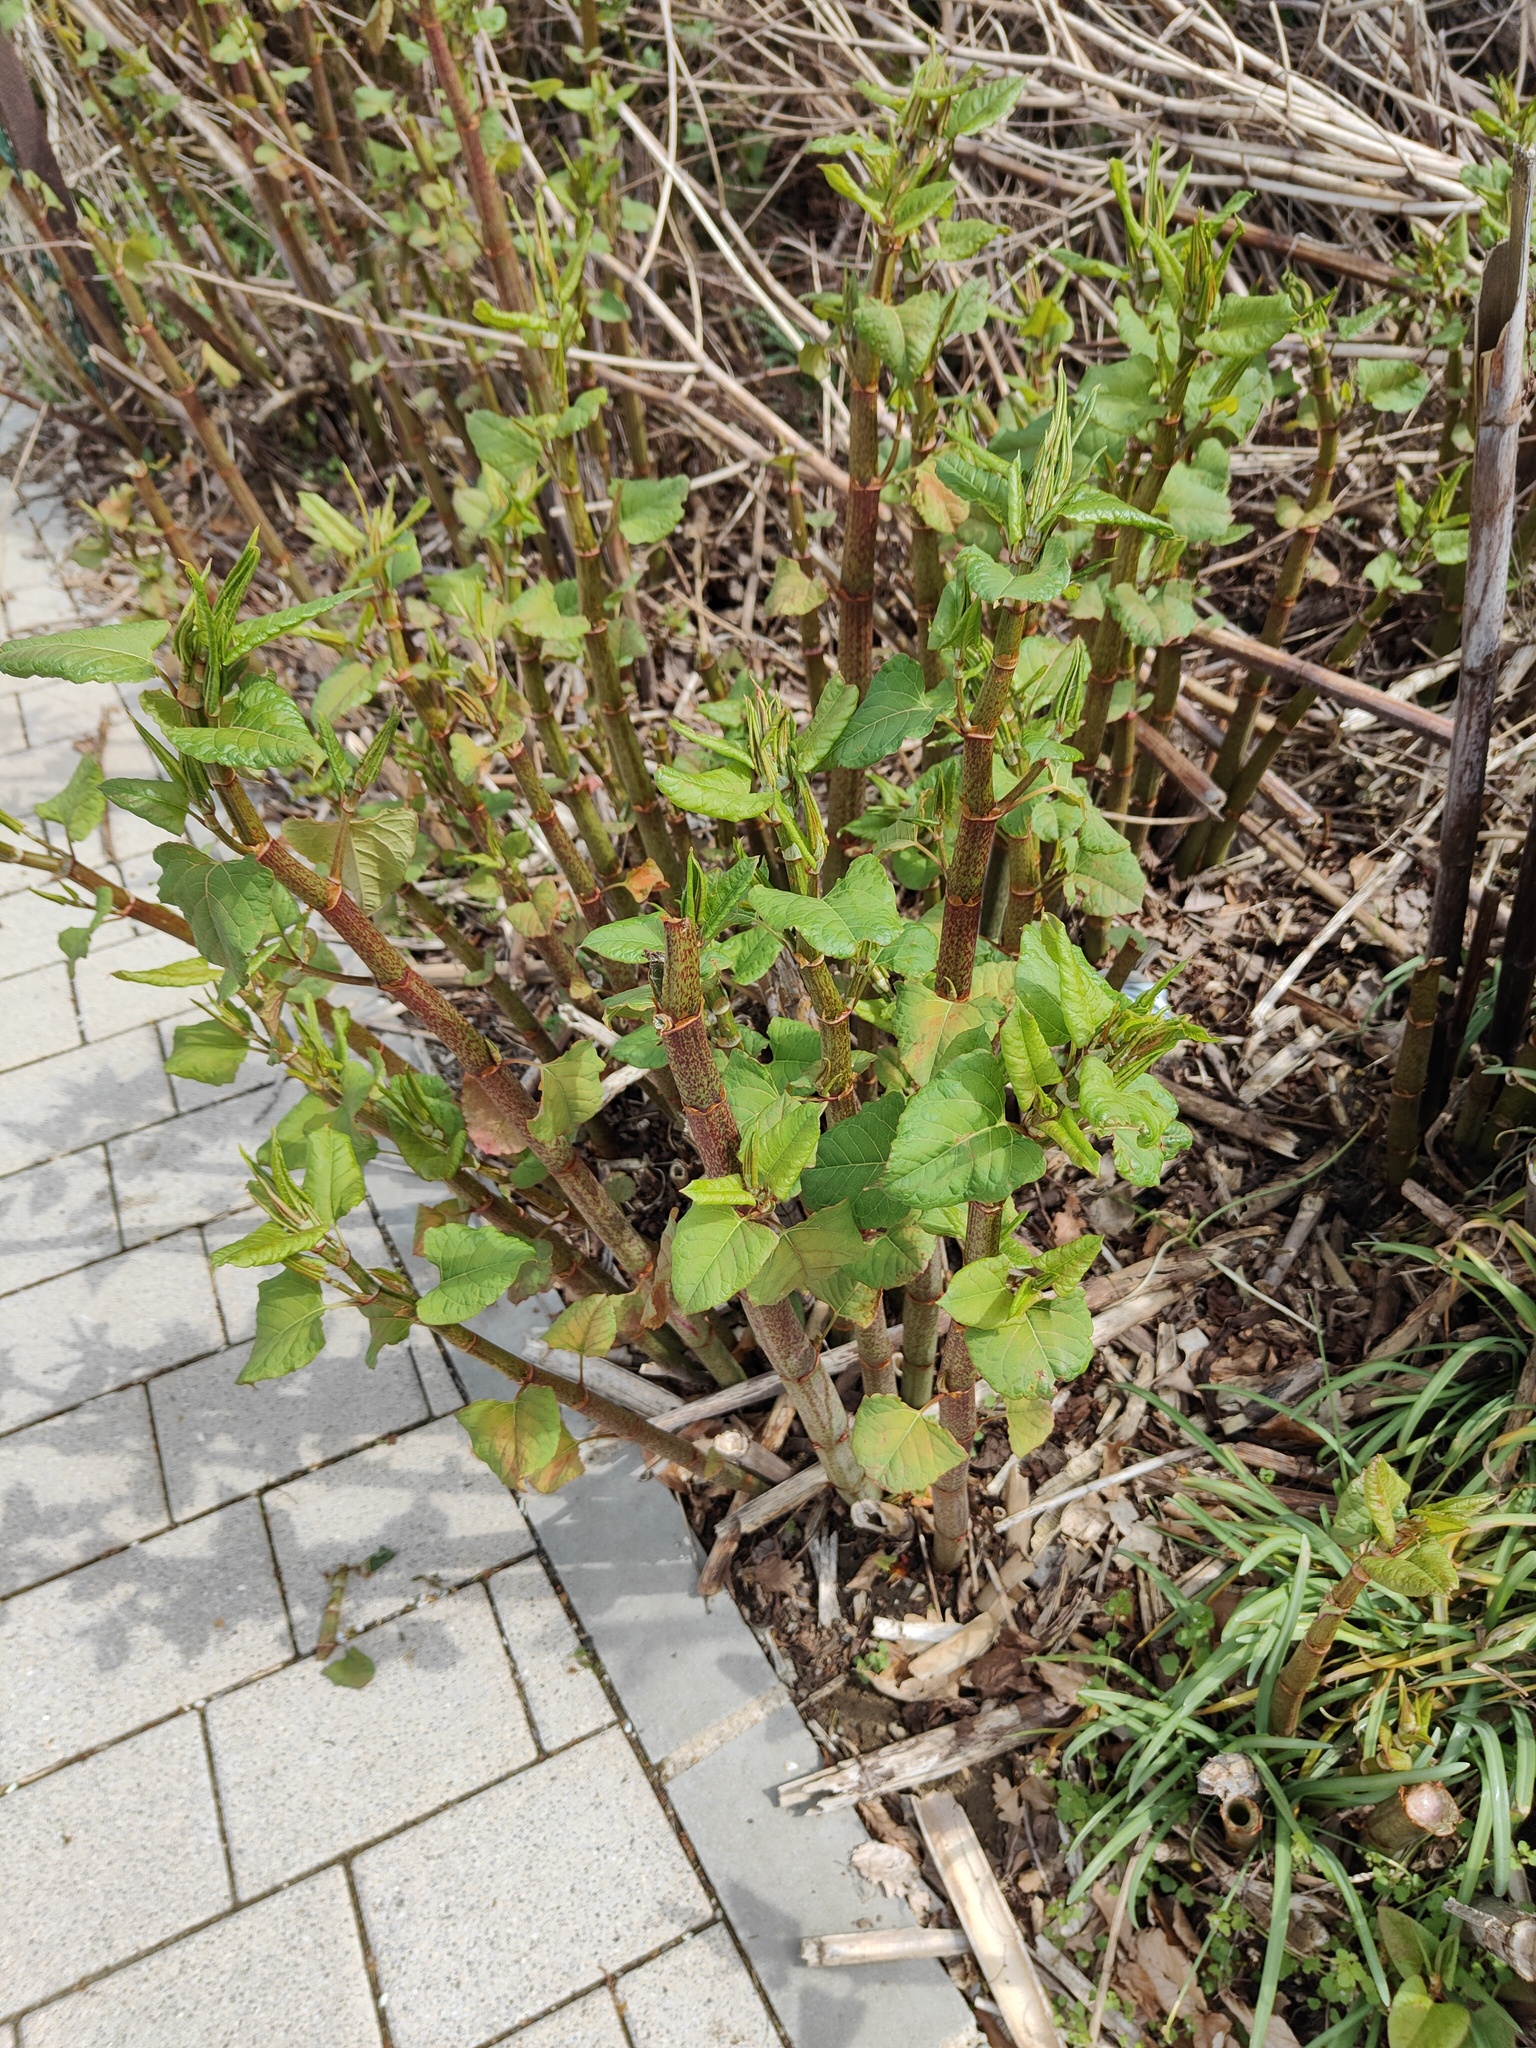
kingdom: Plantae
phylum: Tracheophyta
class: Magnoliopsida
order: Caryophyllales
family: Polygonaceae
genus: Reynoutria
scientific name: Reynoutria japonica
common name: Japanese knotweed
